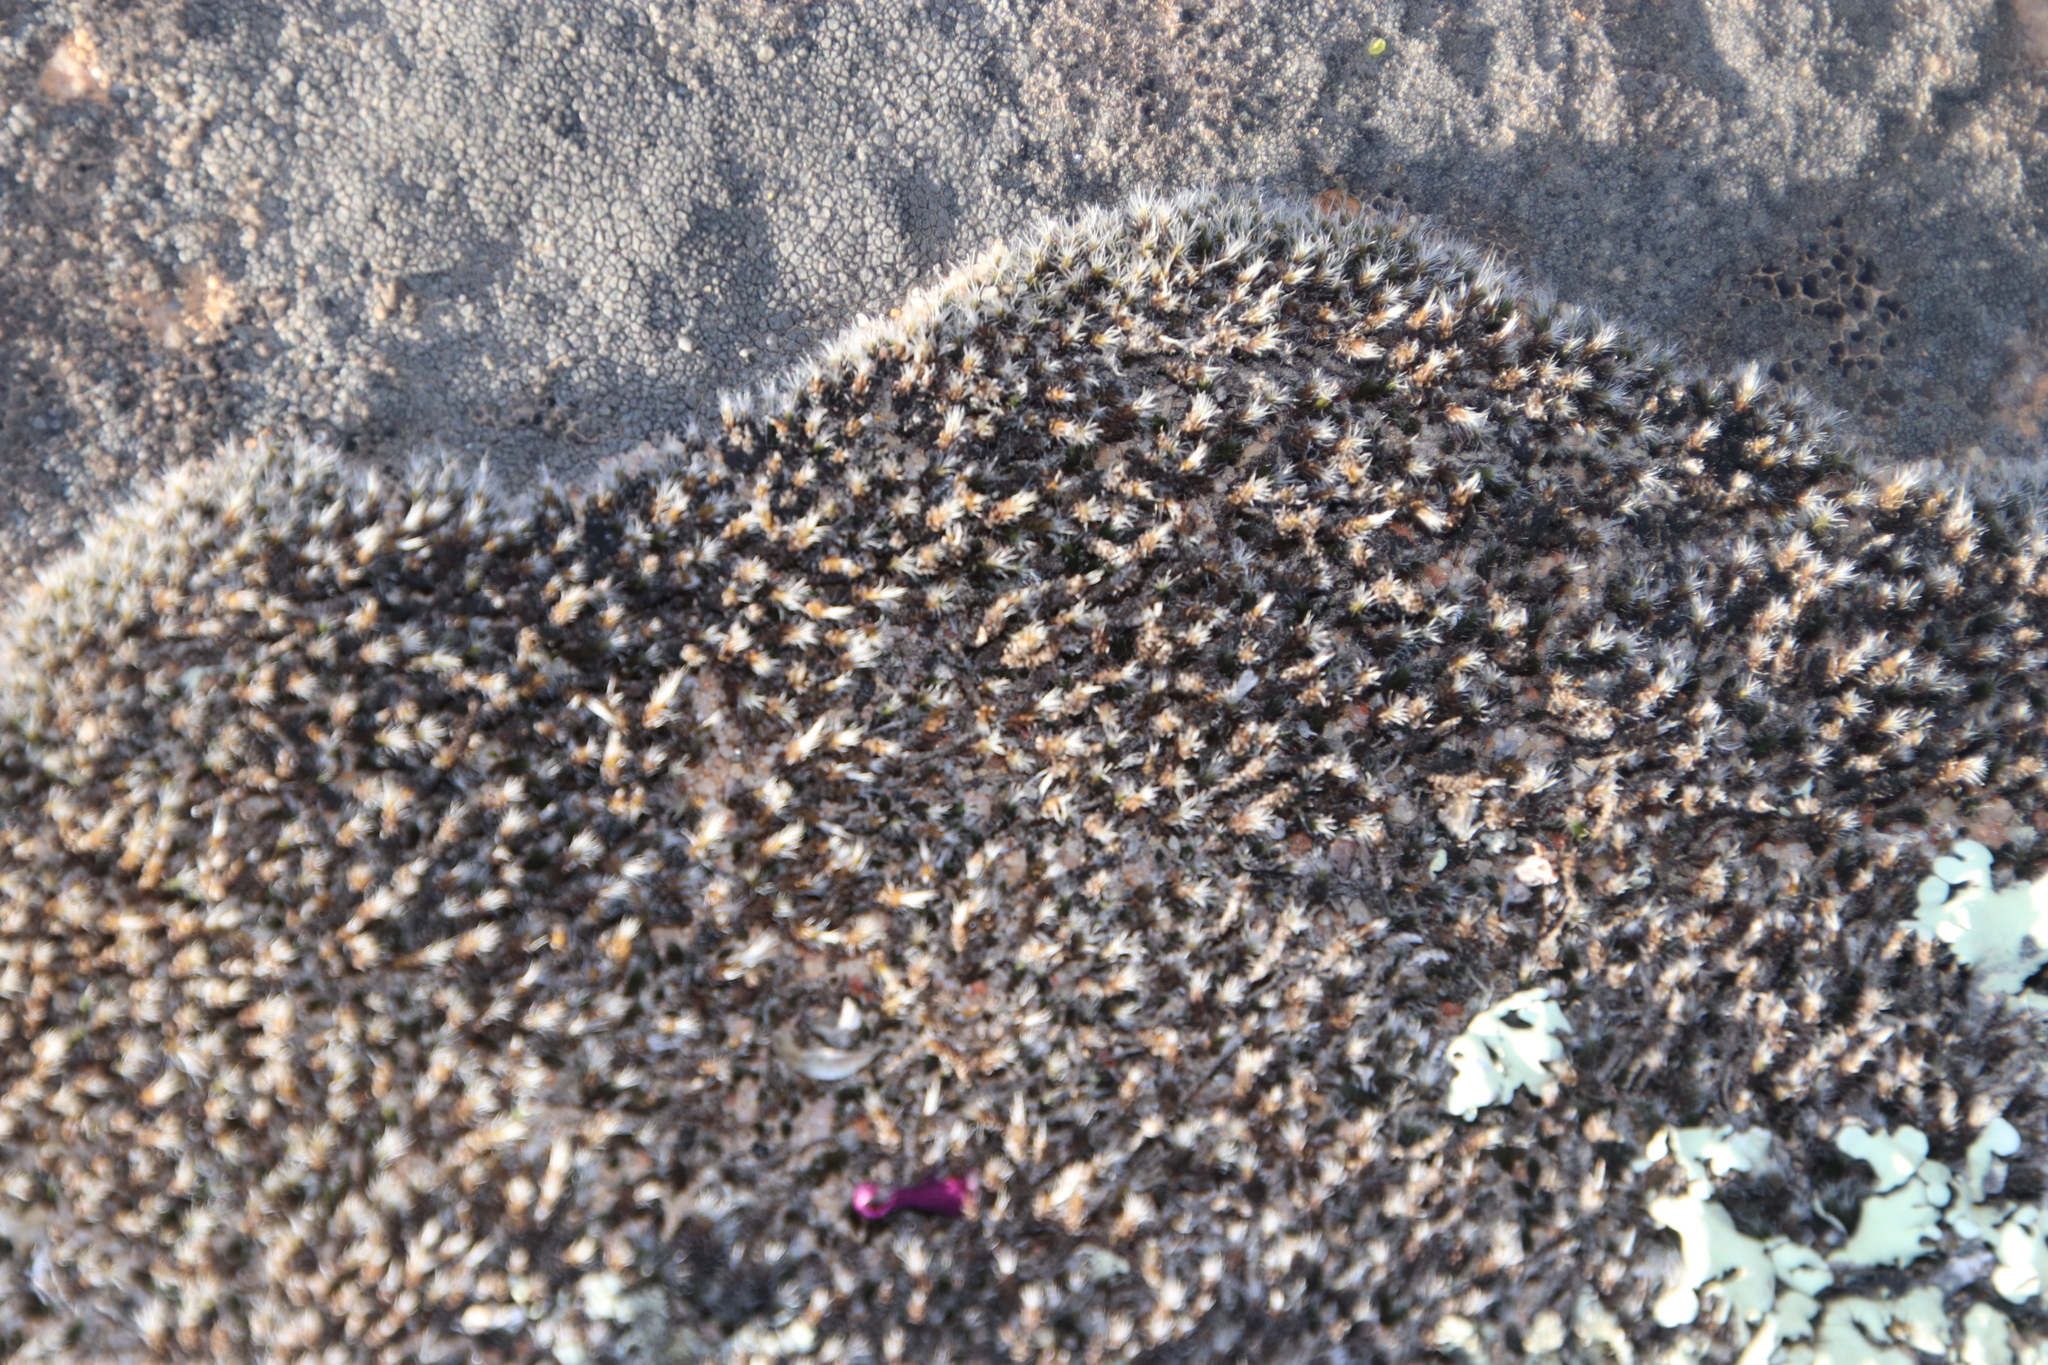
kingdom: Plantae
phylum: Bryophyta
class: Bryopsida
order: Grimmiales
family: Grimmiaceae
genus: Grimmia
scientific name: Grimmia laevigata
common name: Hoary grimmia
